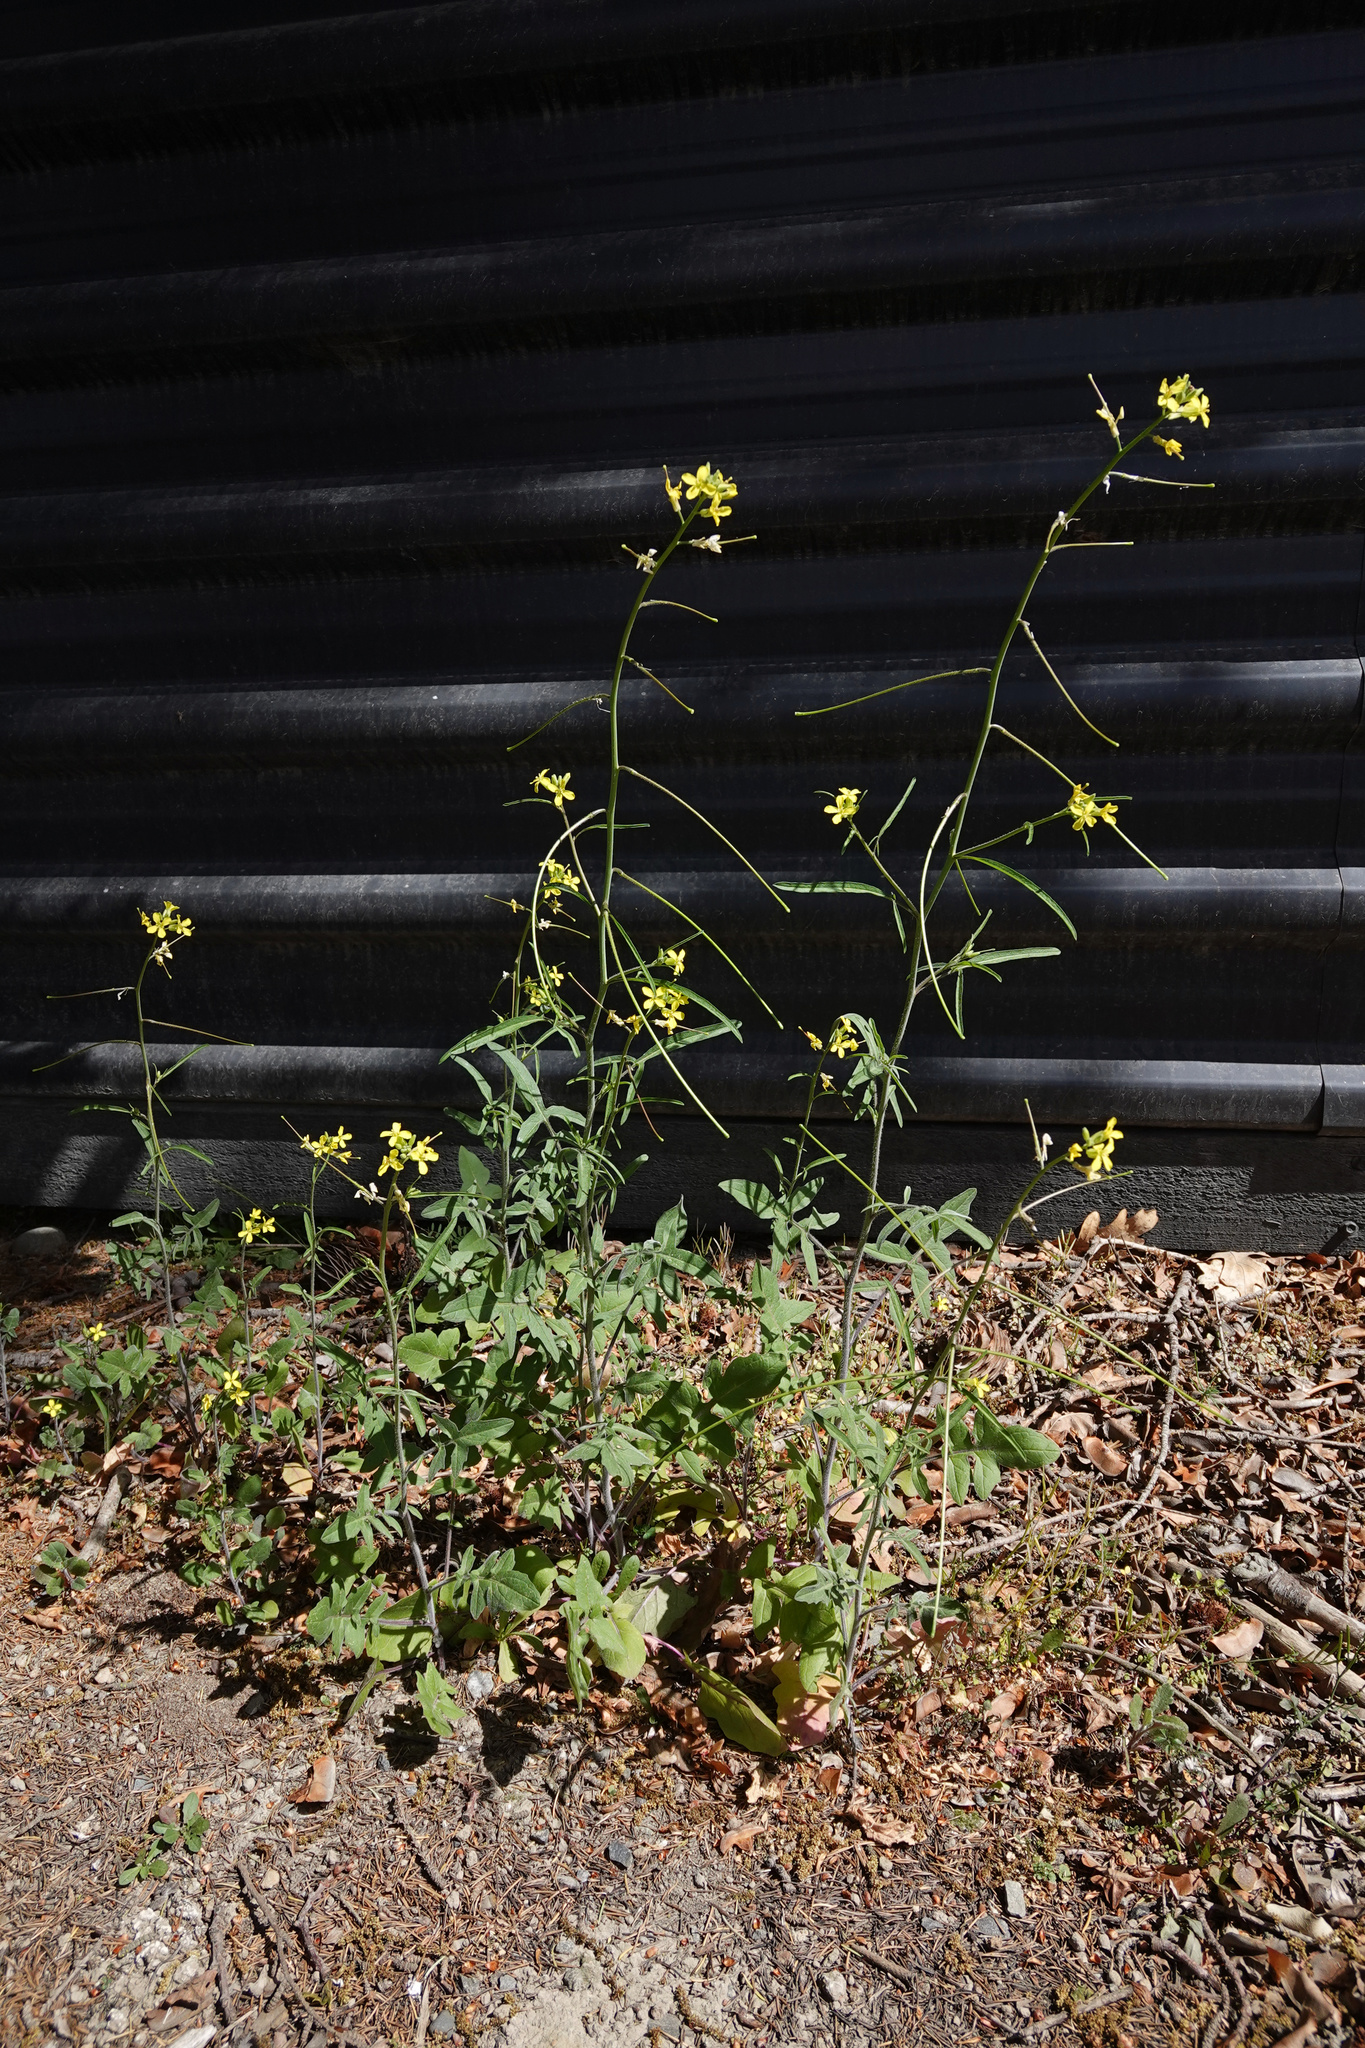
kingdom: Plantae
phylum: Tracheophyta
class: Magnoliopsida
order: Brassicales
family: Brassicaceae
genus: Sisymbrium
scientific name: Sisymbrium orientale
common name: Eastern rocket
